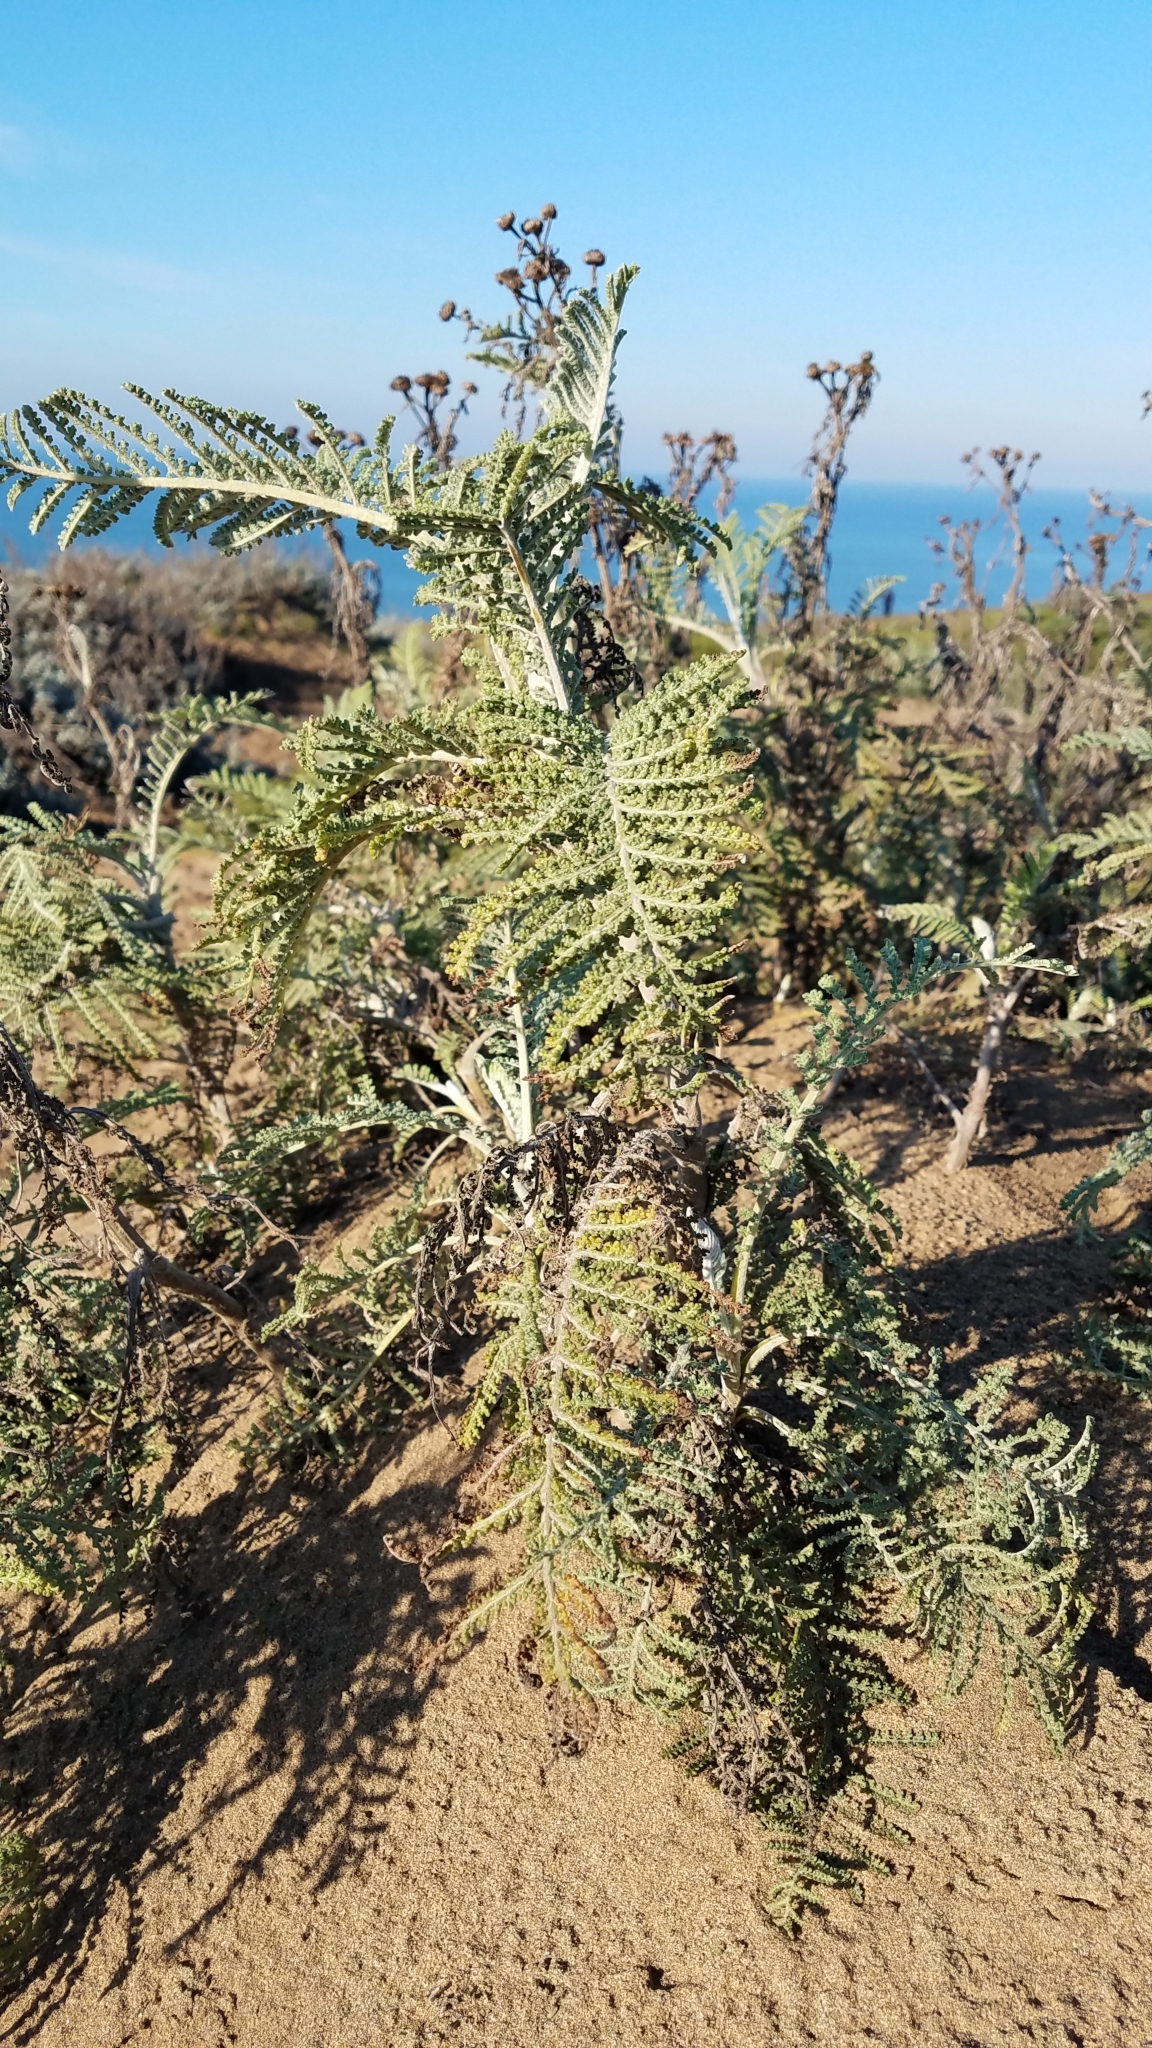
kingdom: Plantae
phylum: Tracheophyta
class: Magnoliopsida
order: Asterales
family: Asteraceae
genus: Tanacetum
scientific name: Tanacetum bipinnatum
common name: Dwarf tansy
